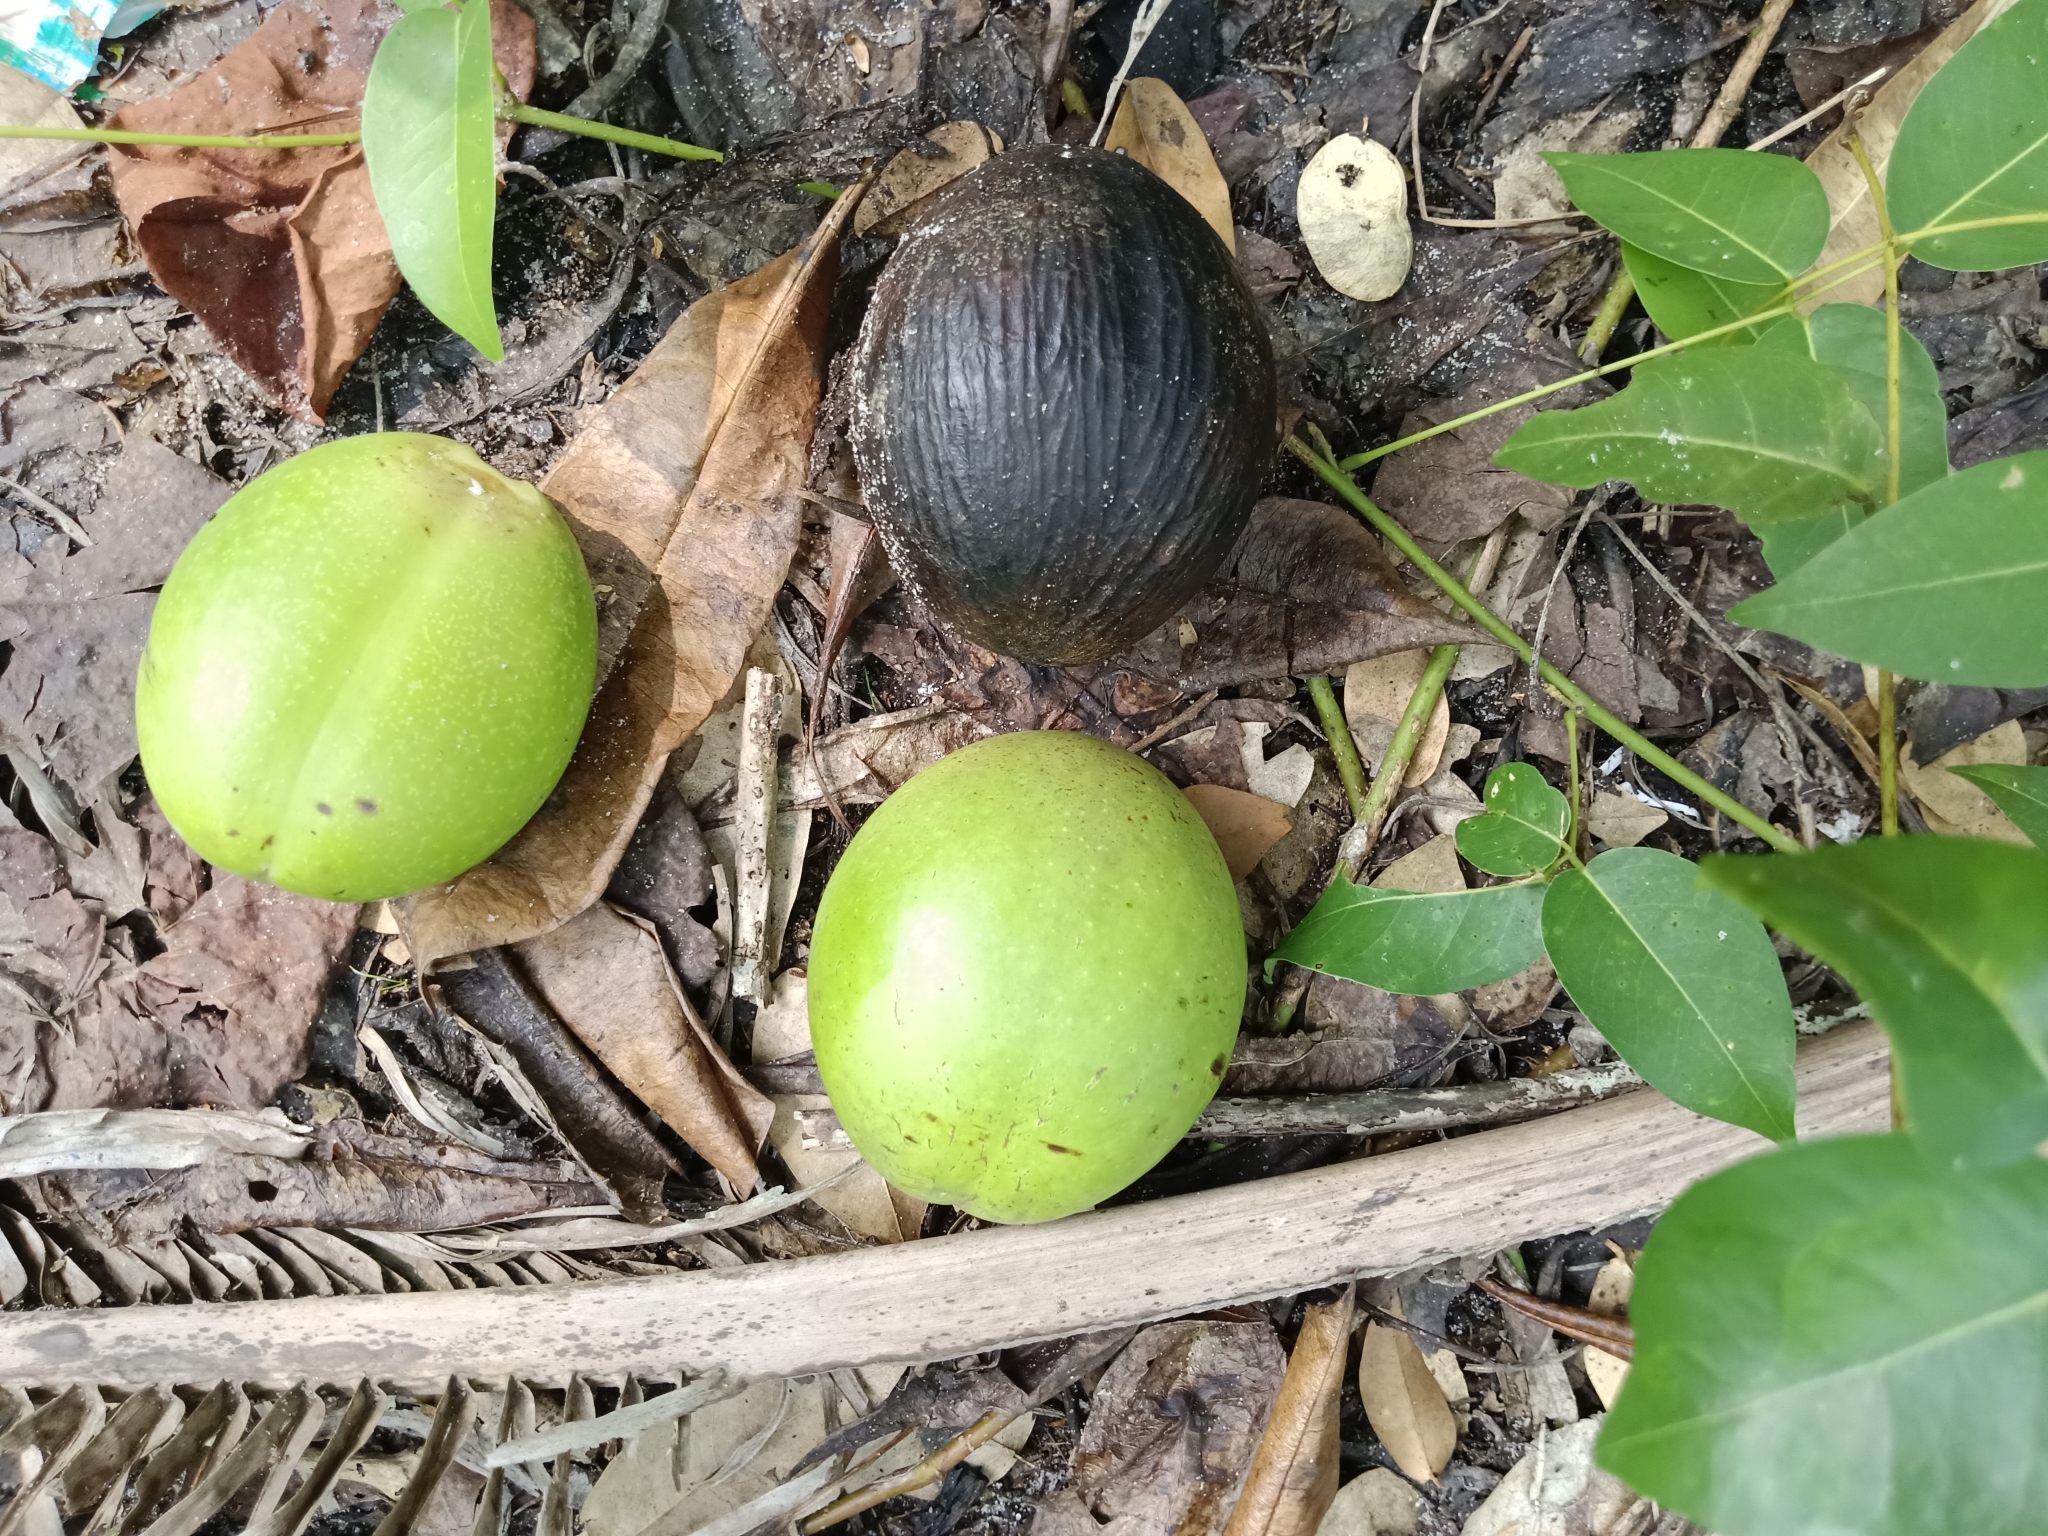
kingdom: Plantae
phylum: Tracheophyta
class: Magnoliopsida
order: Gentianales
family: Apocynaceae
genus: Cerbera
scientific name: Cerbera odollam
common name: Pong-pong
